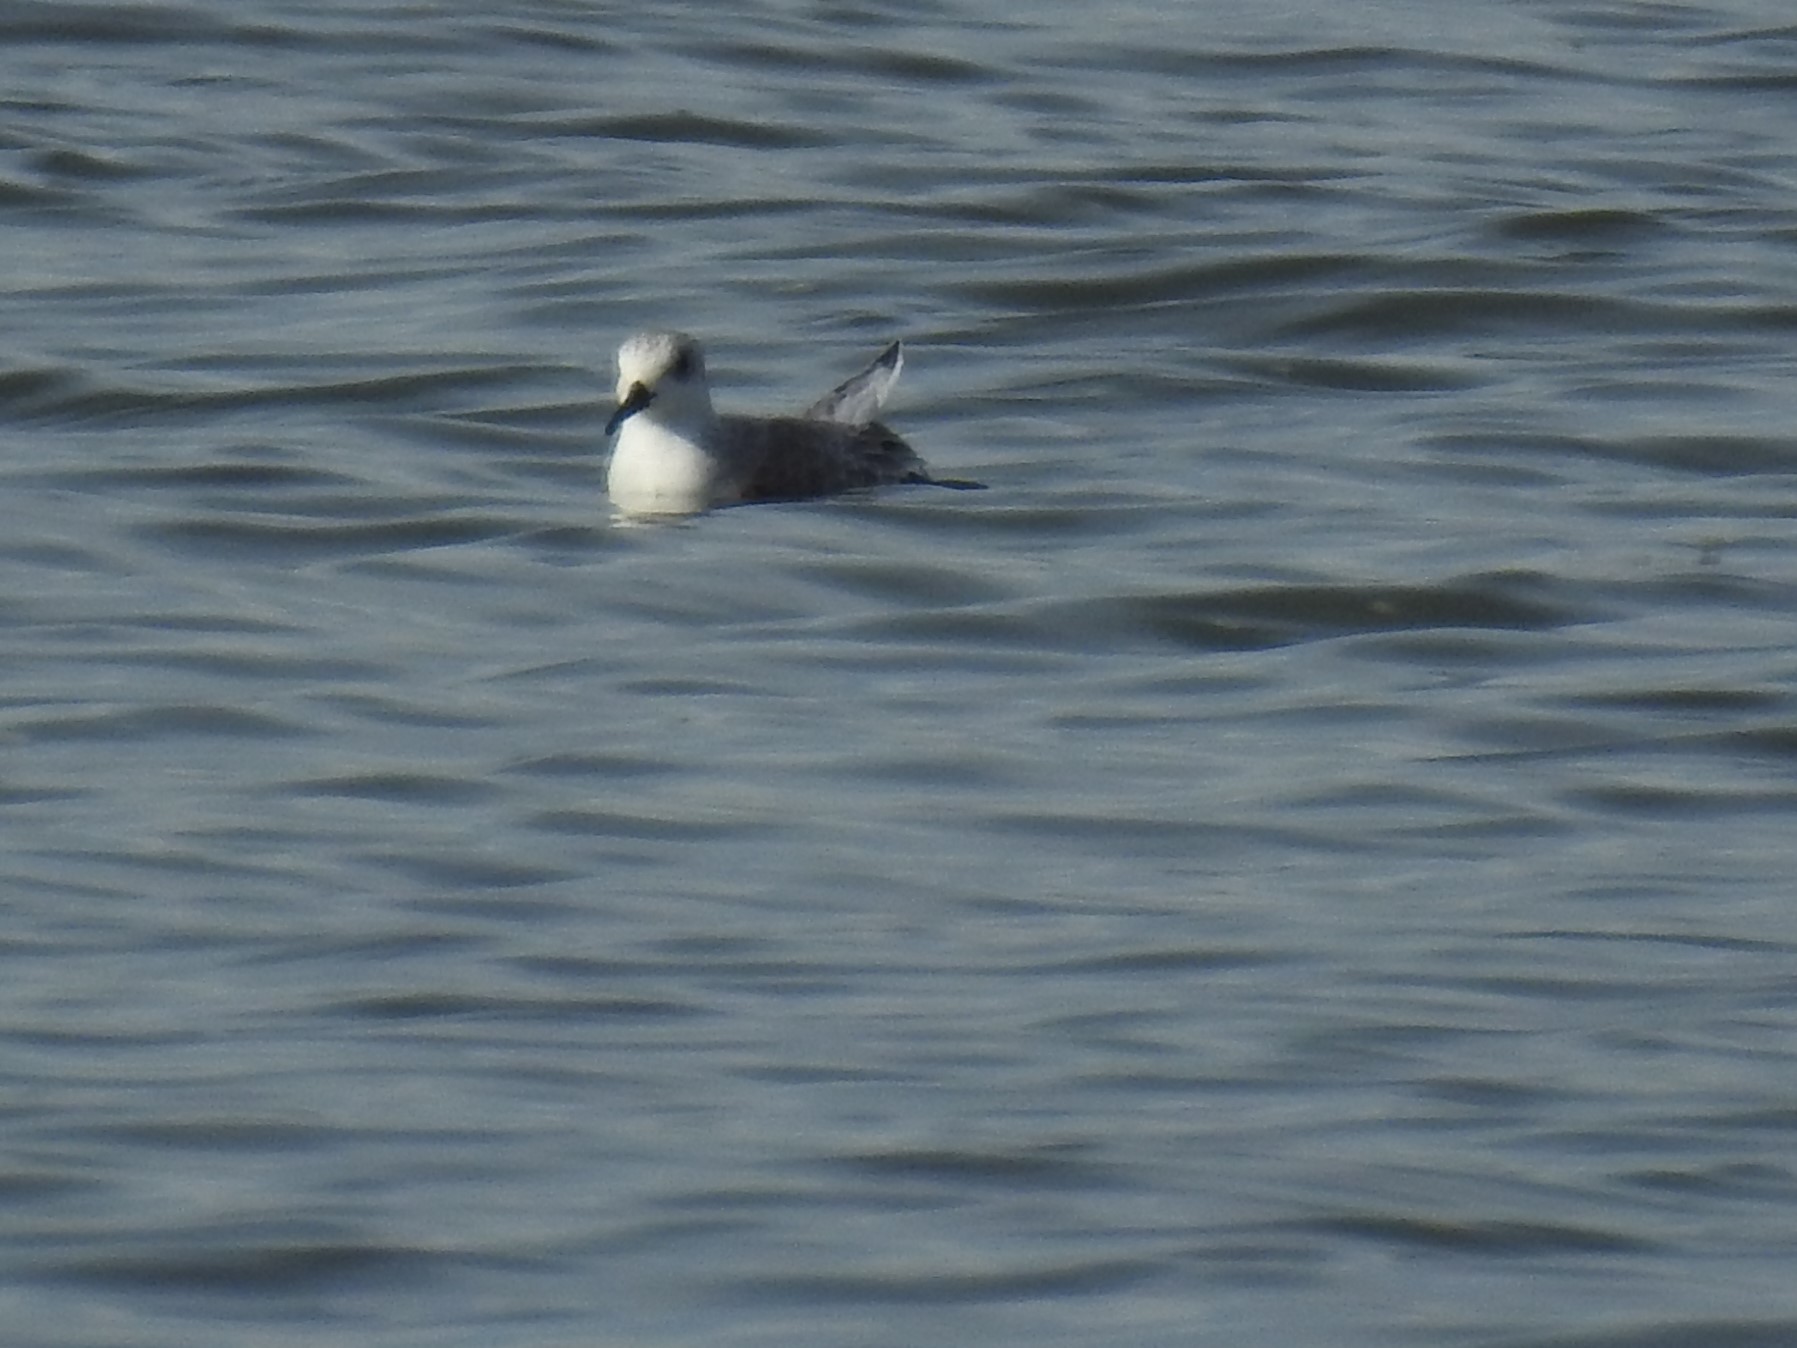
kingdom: Animalia
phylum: Chordata
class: Aves
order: Charadriiformes
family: Scolopacidae
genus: Calidris
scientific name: Calidris alba
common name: Sanderling
